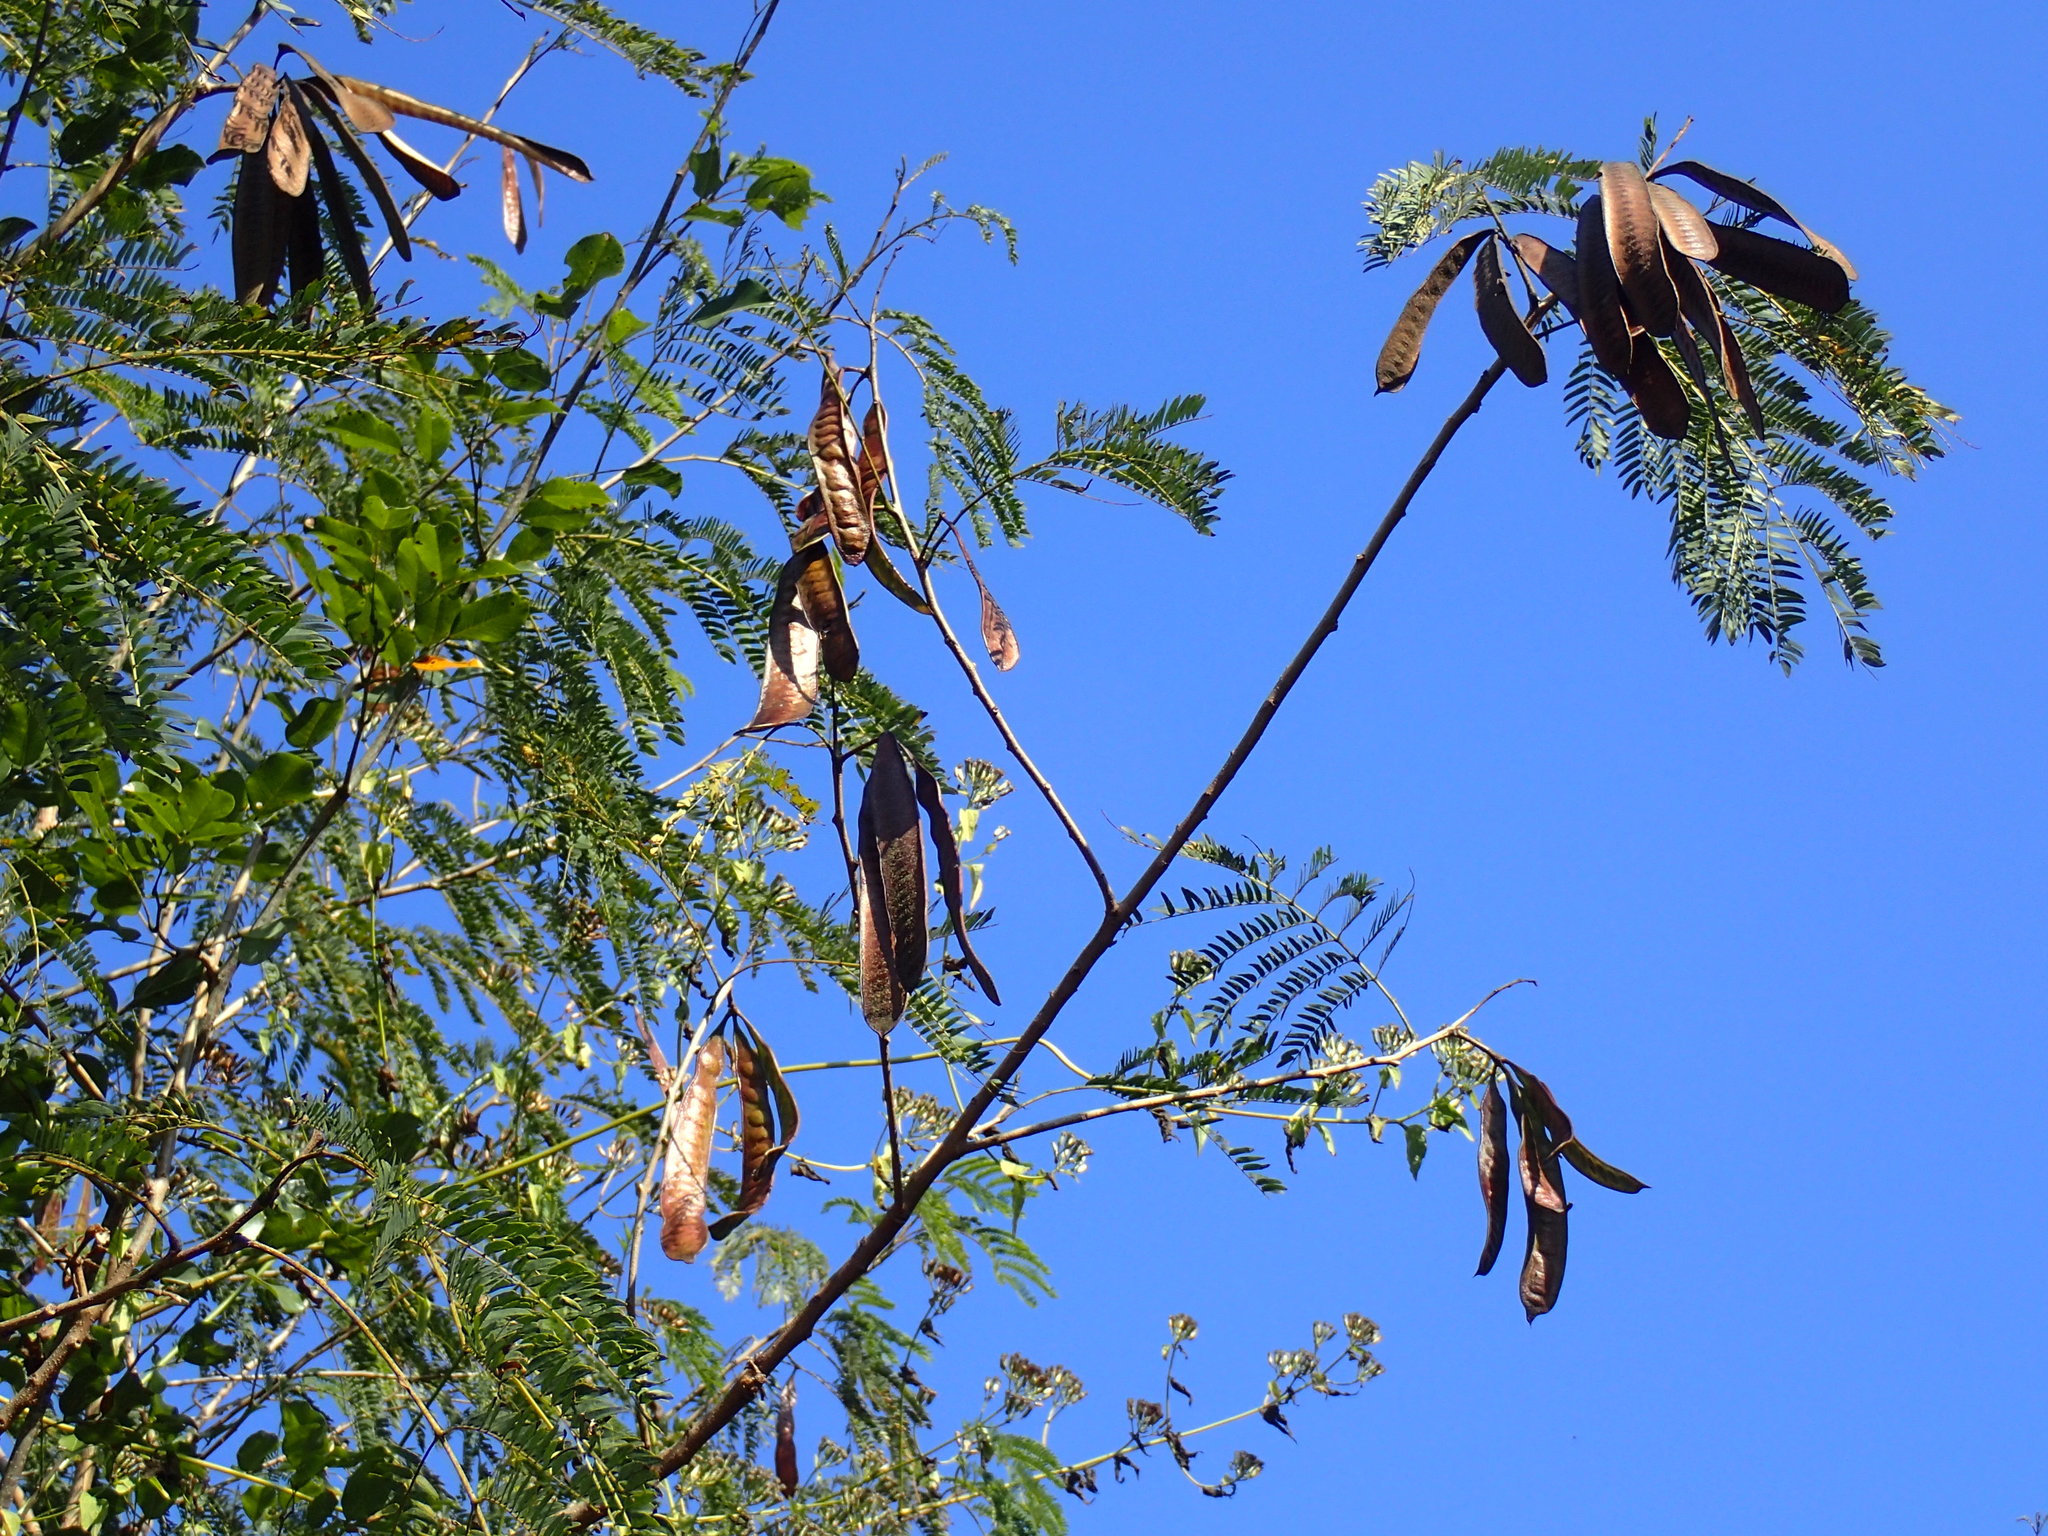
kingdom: Plantae
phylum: Tracheophyta
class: Magnoliopsida
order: Fabales
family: Fabaceae
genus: Leucaena
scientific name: Leucaena leucocephala
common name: White leadtree
